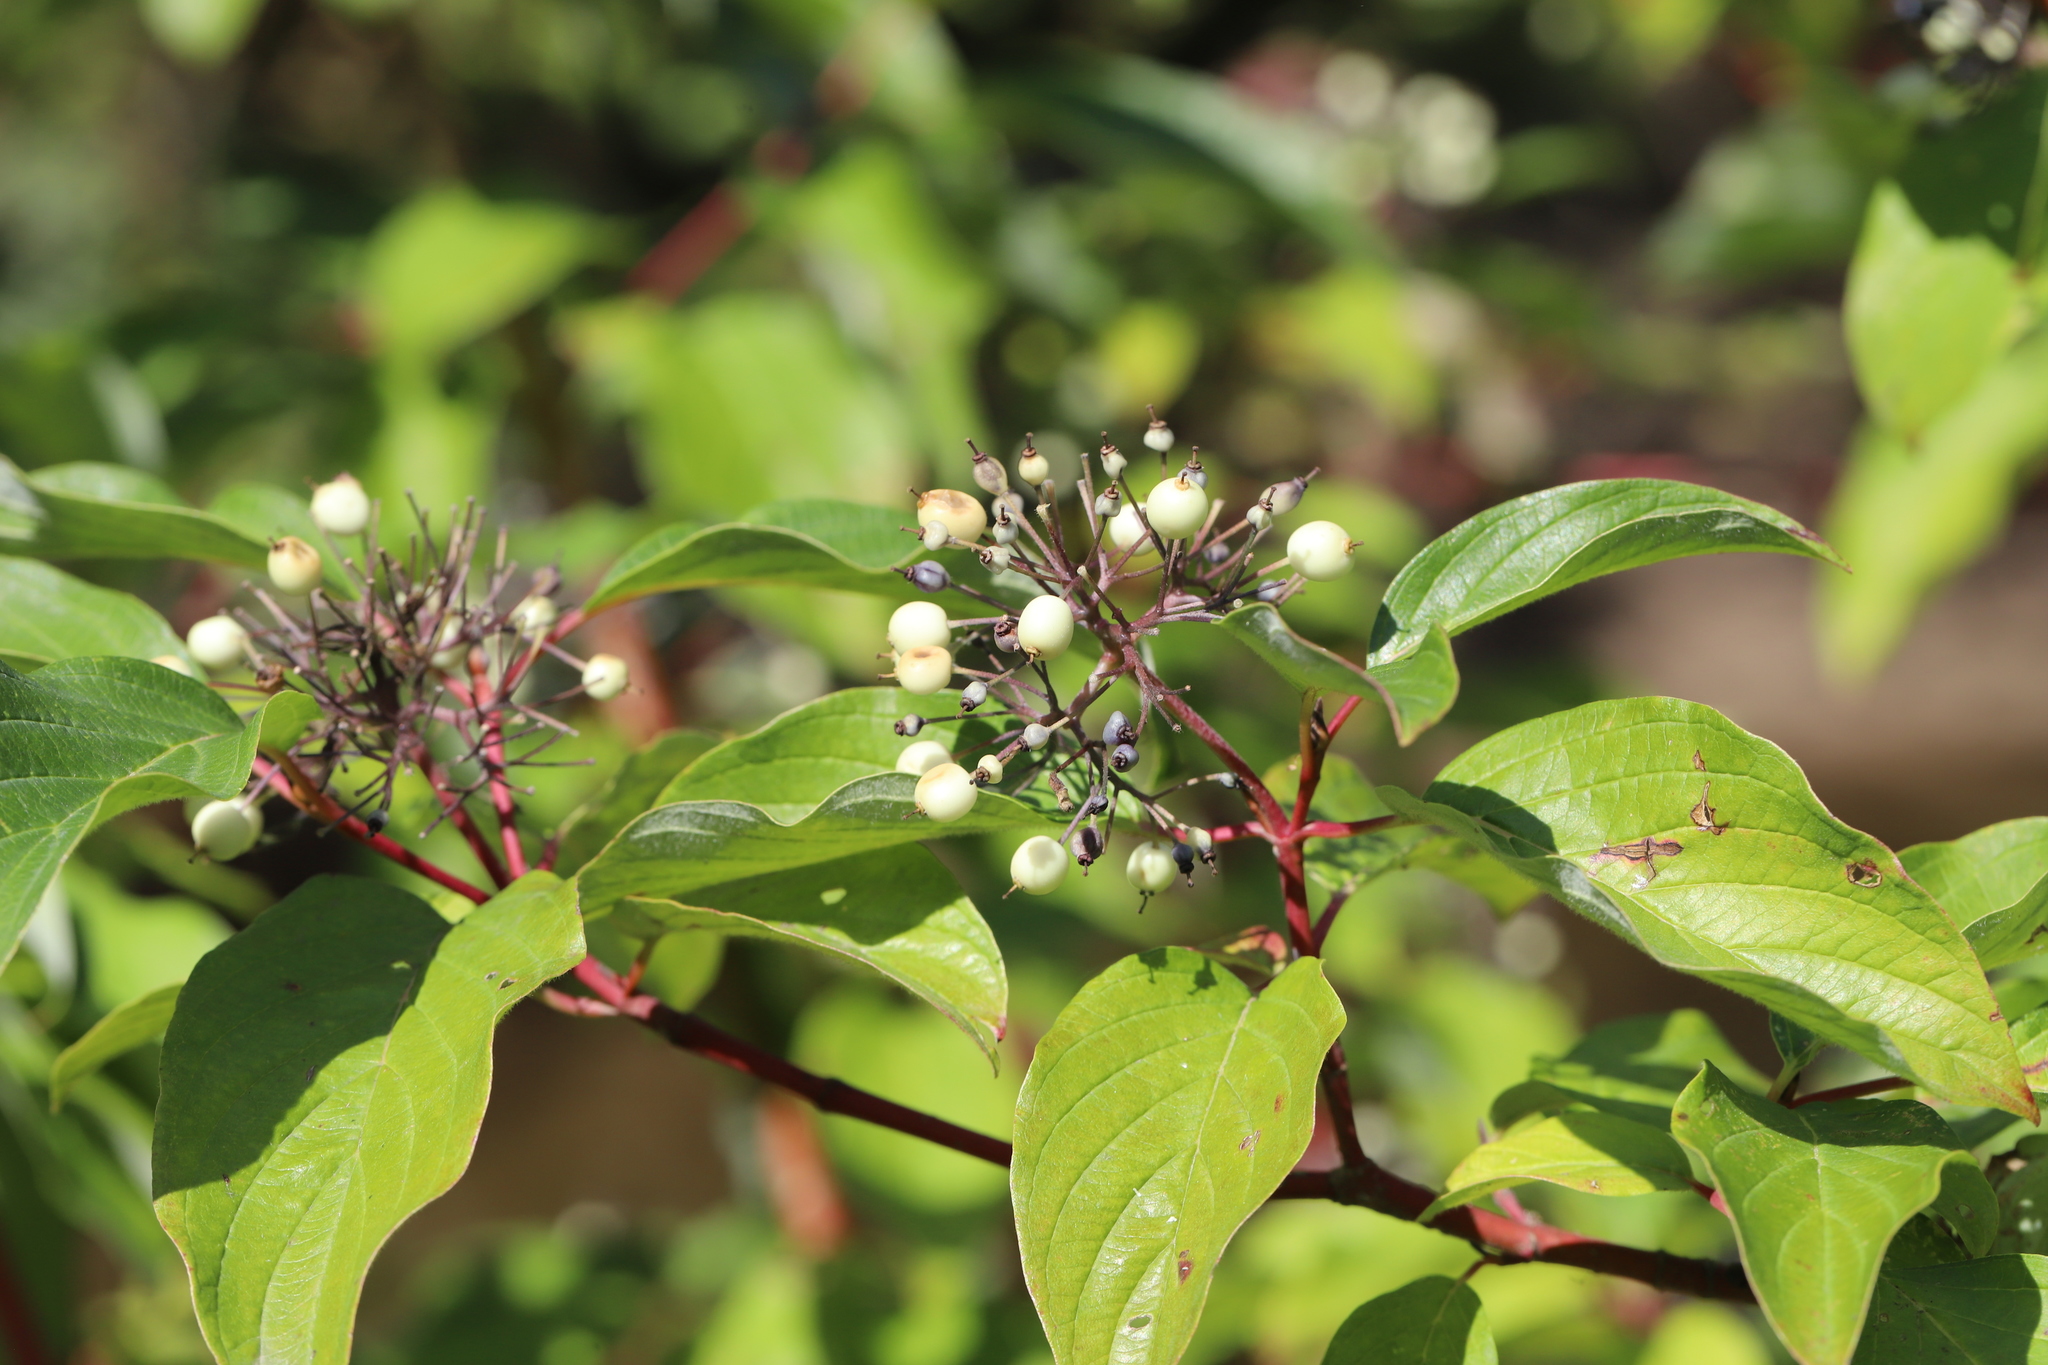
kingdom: Plantae
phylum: Tracheophyta
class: Magnoliopsida
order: Cornales
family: Cornaceae
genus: Cornus
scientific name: Cornus sericea
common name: Red-osier dogwood
